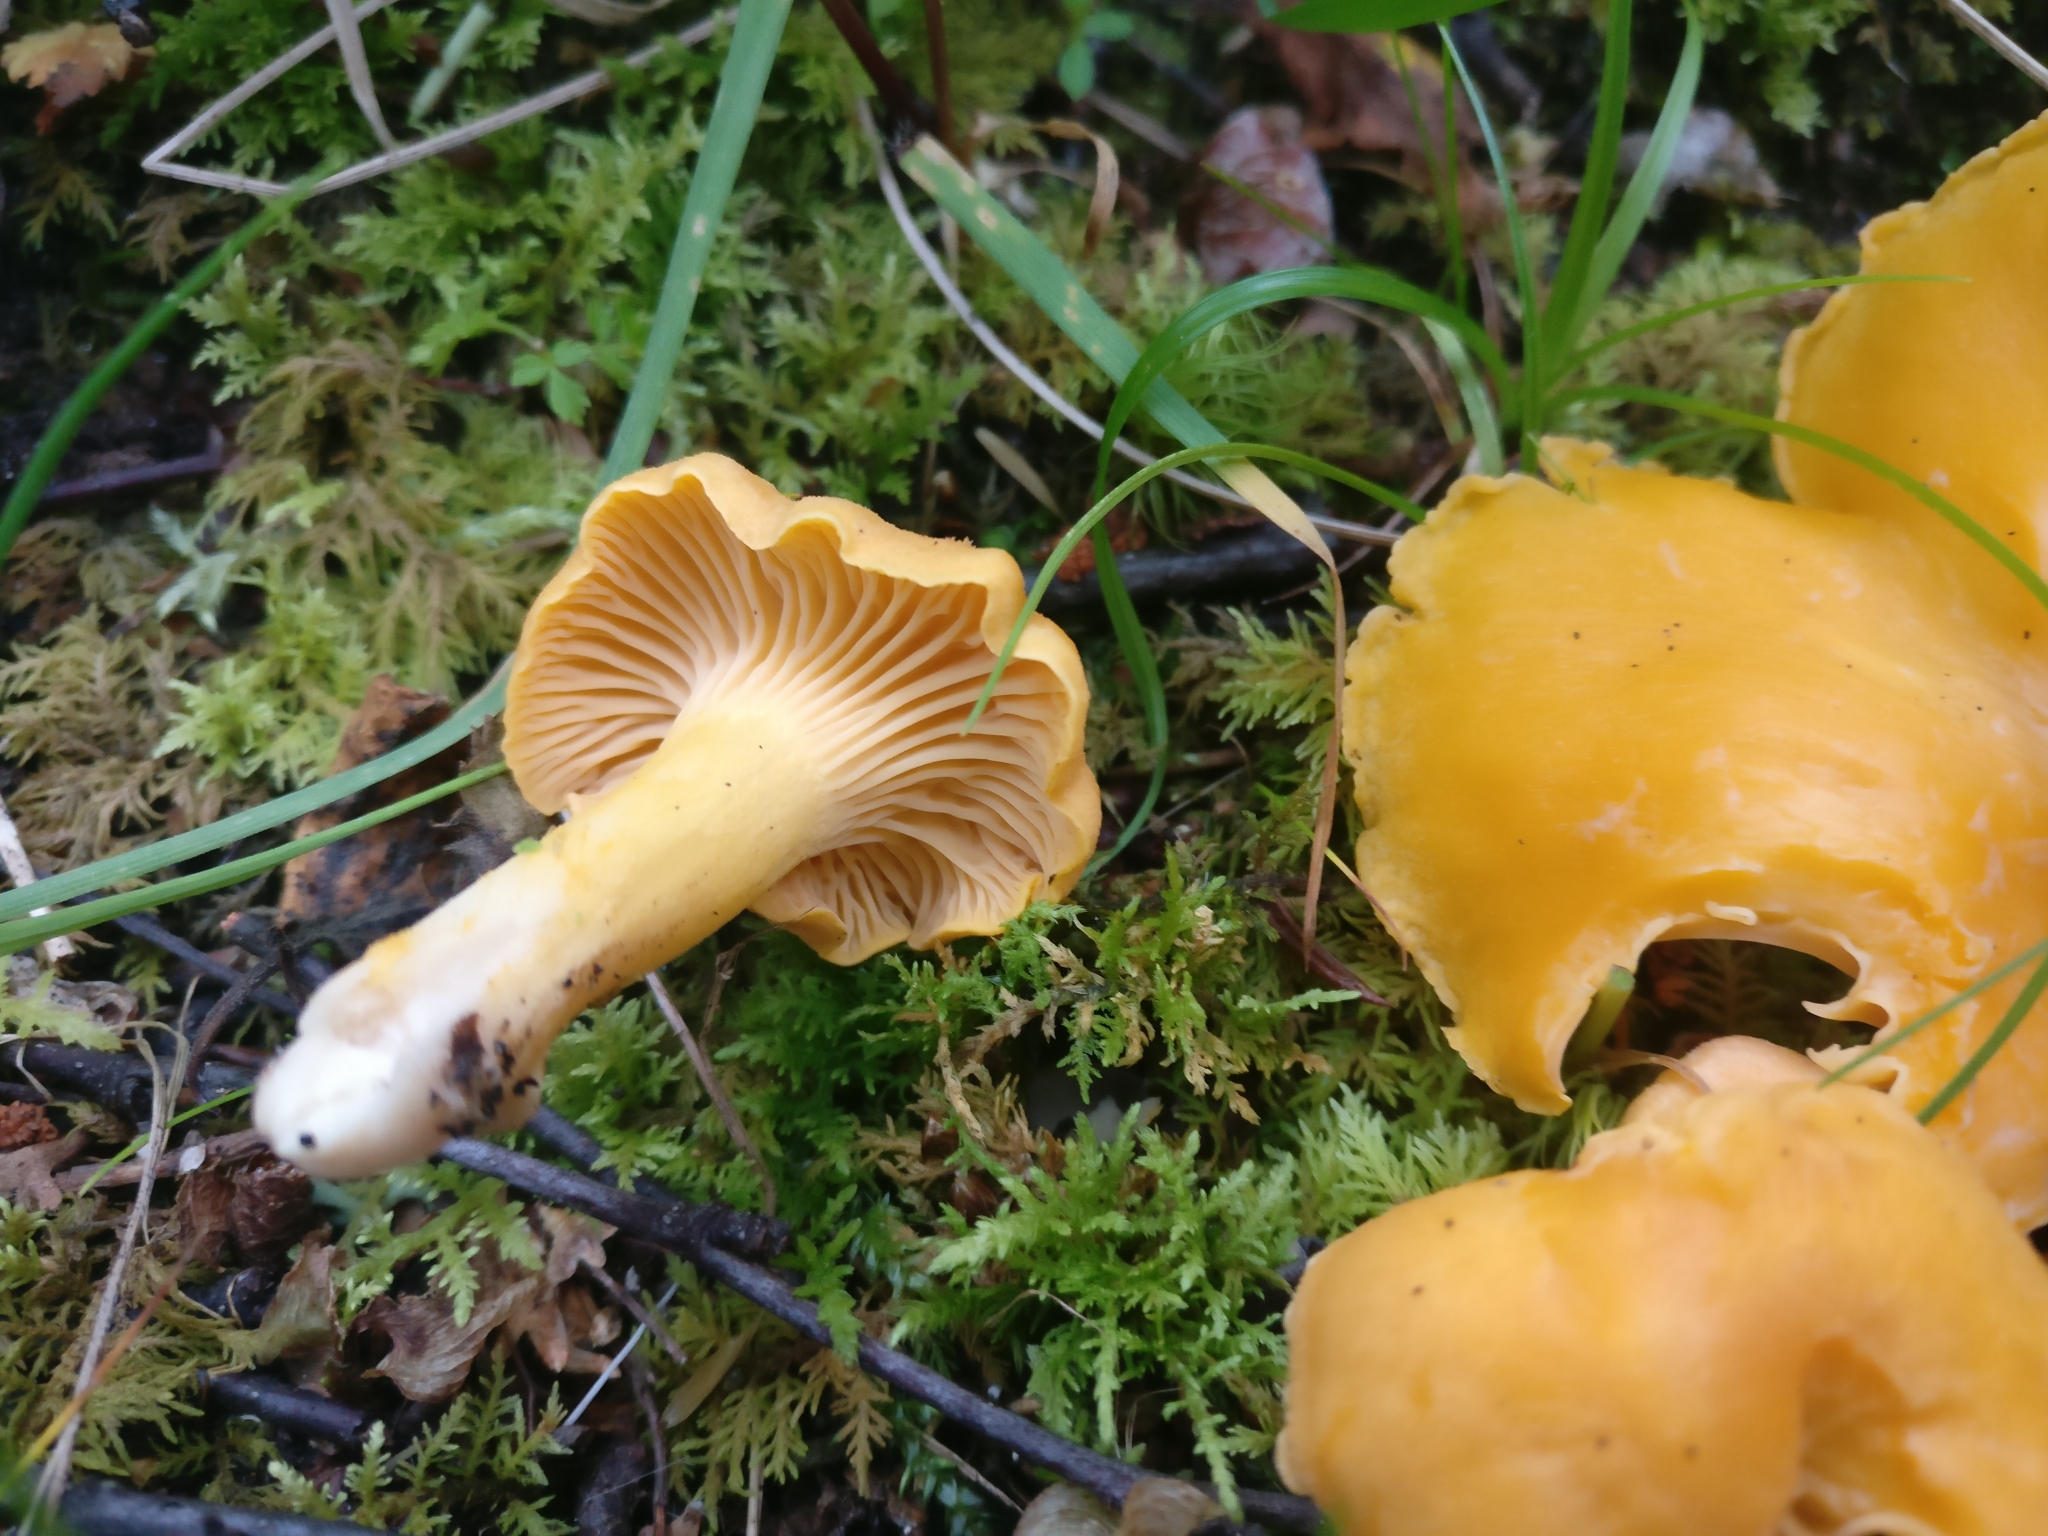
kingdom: Fungi
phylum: Basidiomycota
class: Agaricomycetes
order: Cantharellales
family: Hydnaceae
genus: Cantharellus
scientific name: Cantharellus cibarius
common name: Chanterelle
